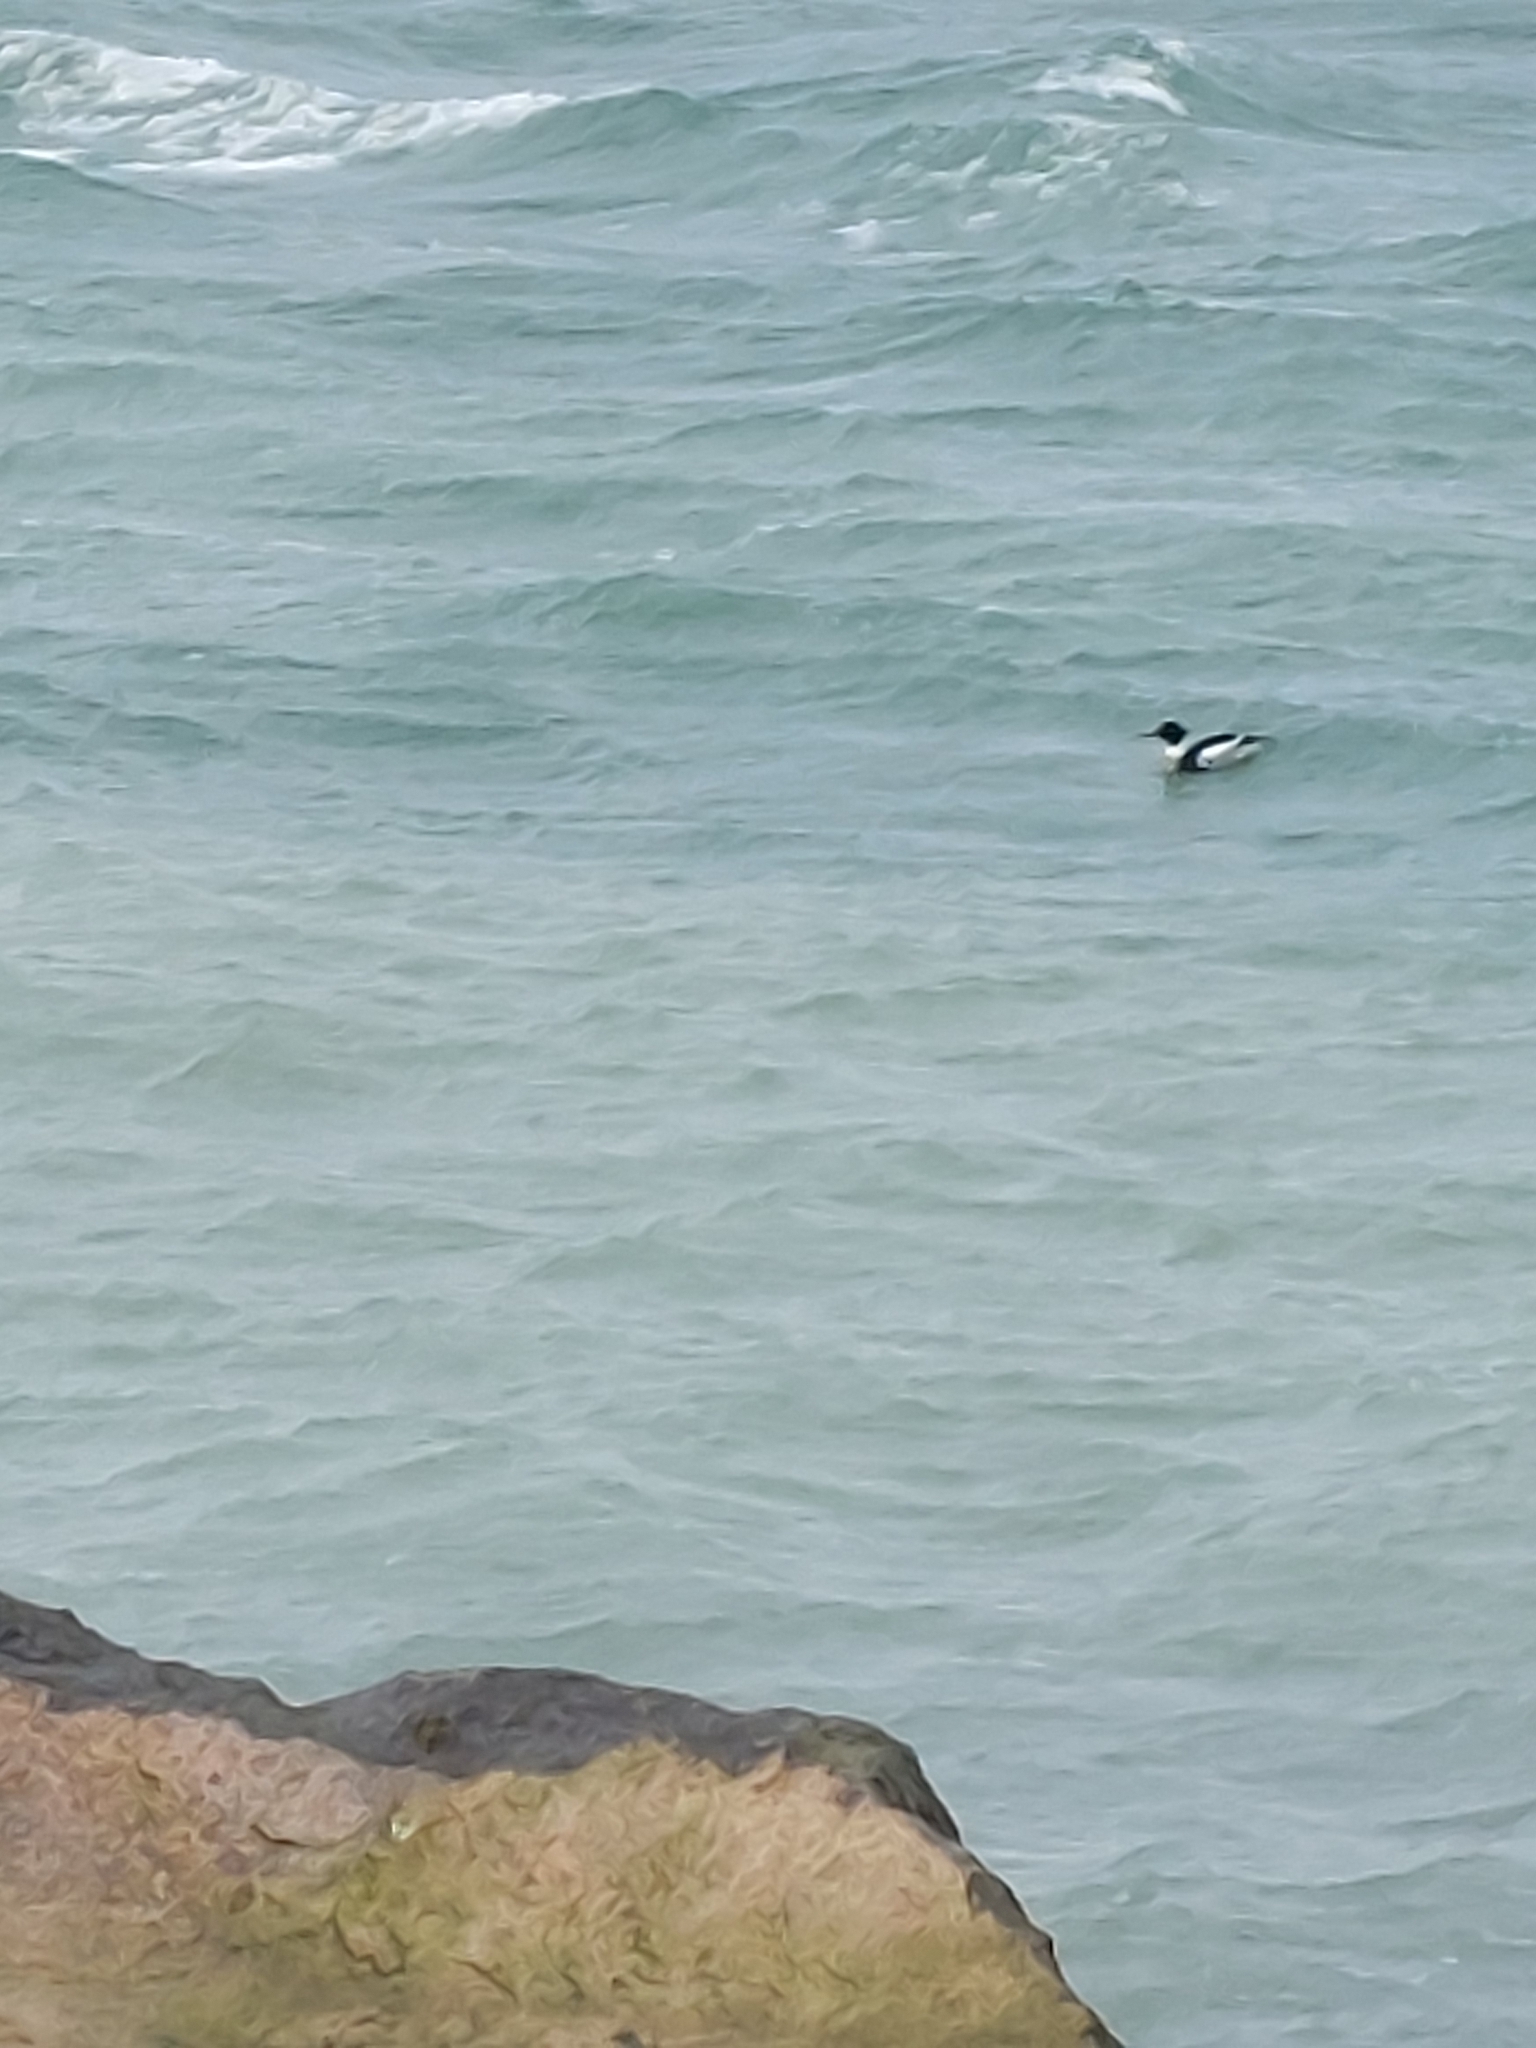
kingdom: Animalia
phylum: Chordata
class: Aves
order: Anseriformes
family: Anatidae
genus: Mergus
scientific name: Mergus serrator
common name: Red-breasted merganser
